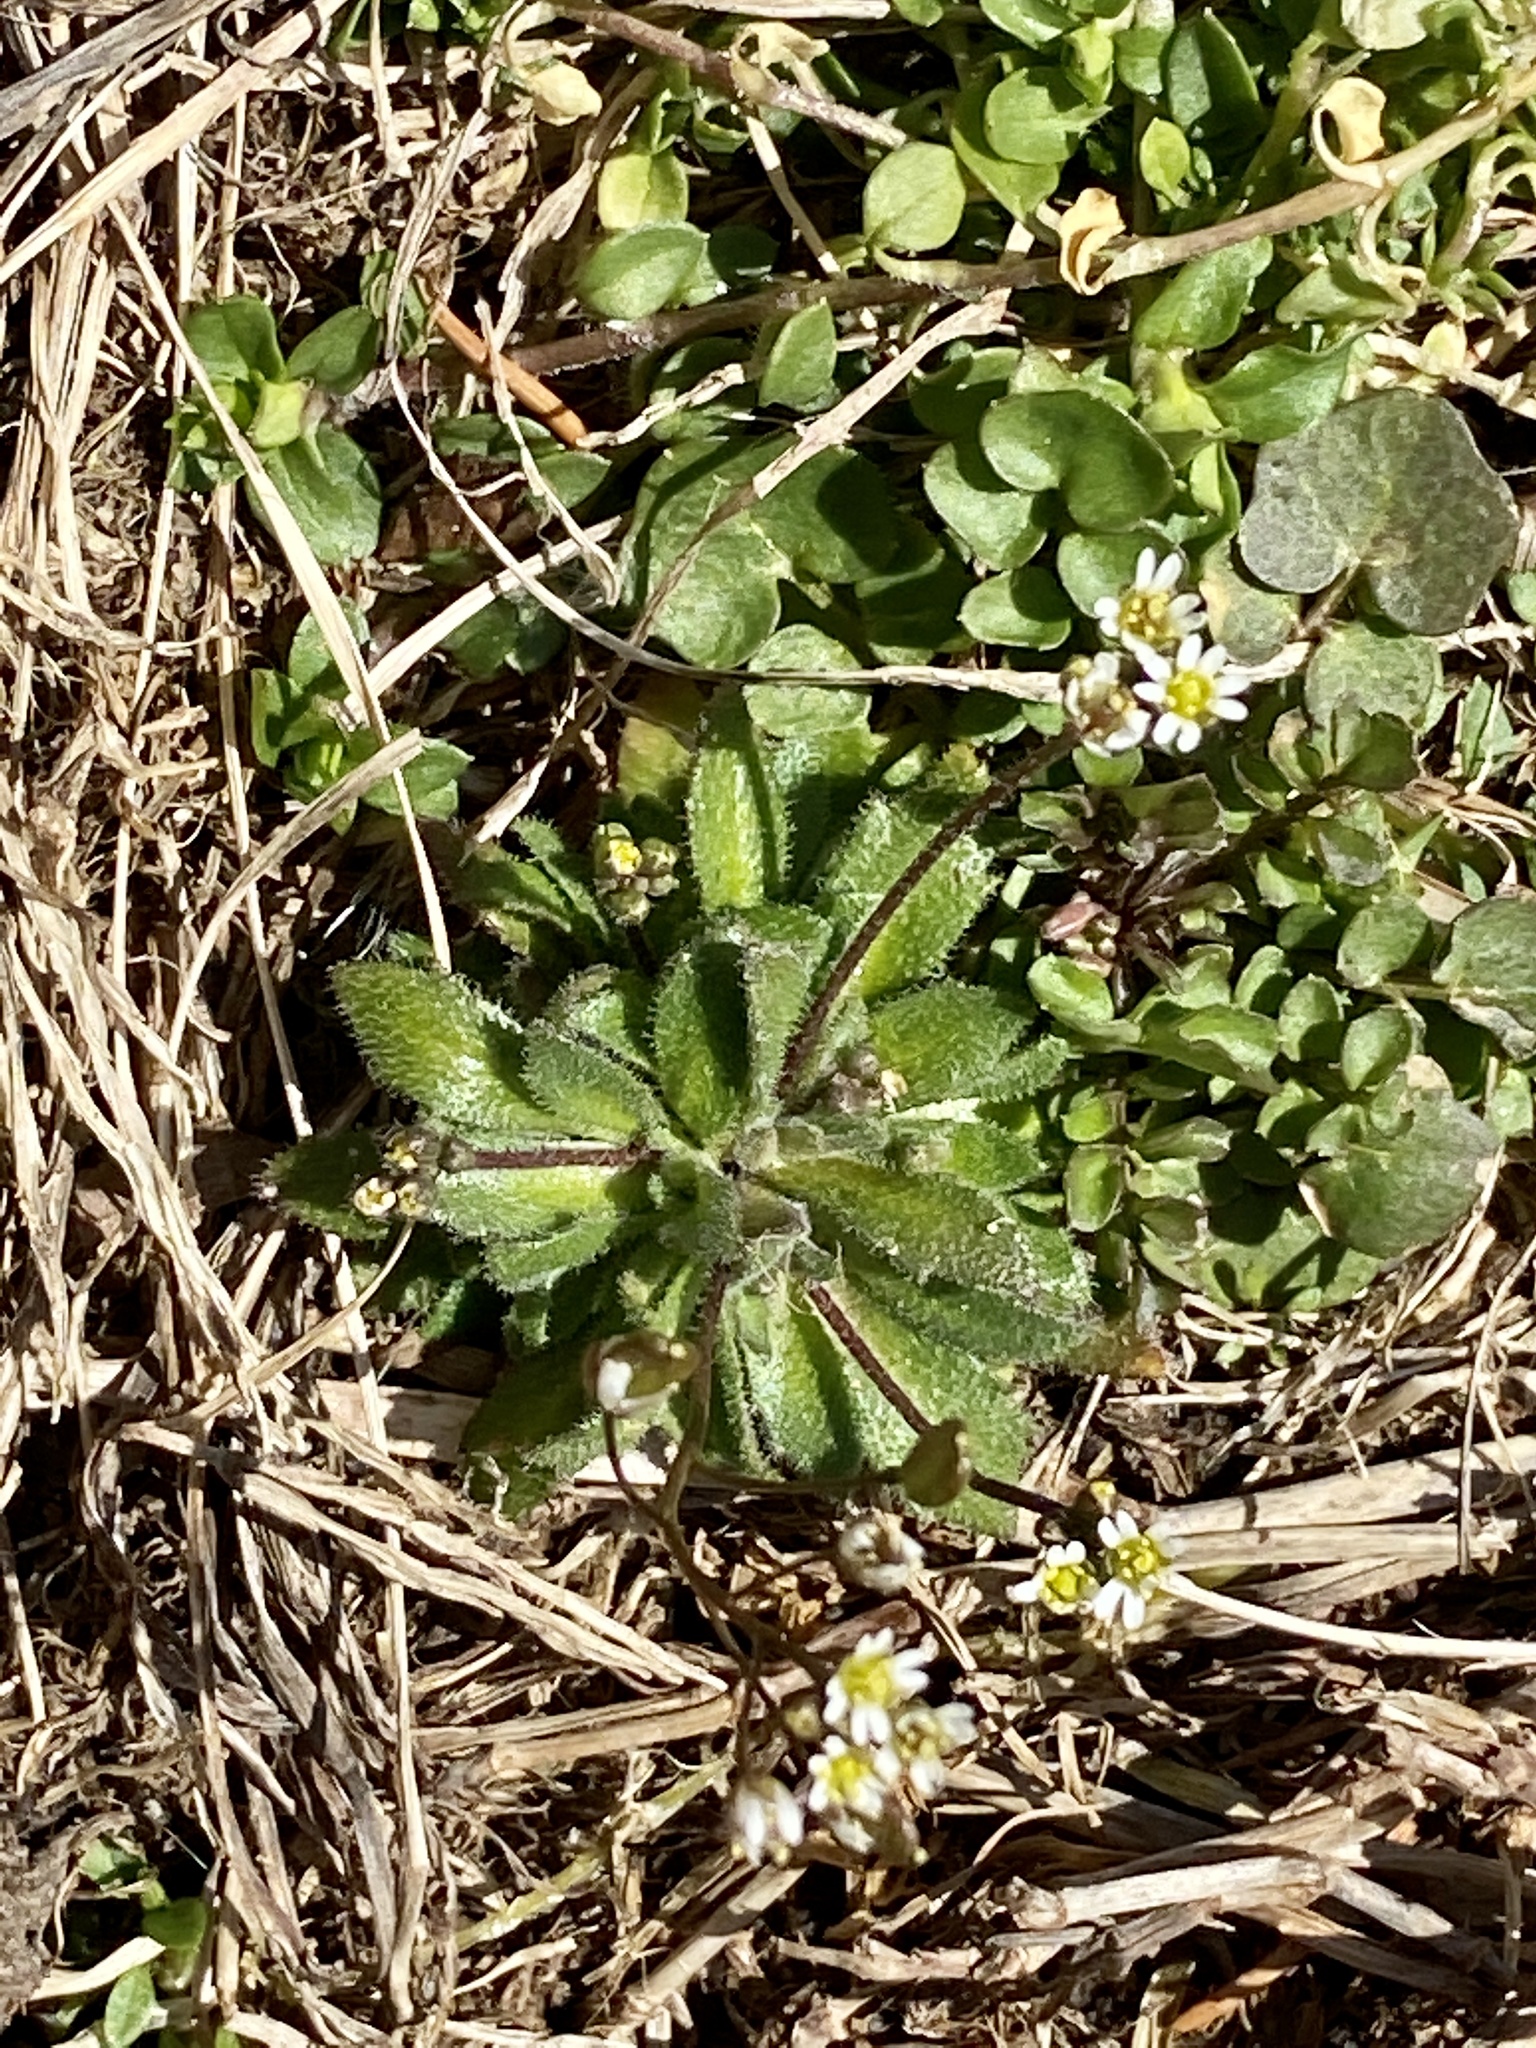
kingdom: Plantae
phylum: Tracheophyta
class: Magnoliopsida
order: Brassicales
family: Brassicaceae
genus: Draba
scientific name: Draba verna
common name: Spring draba
